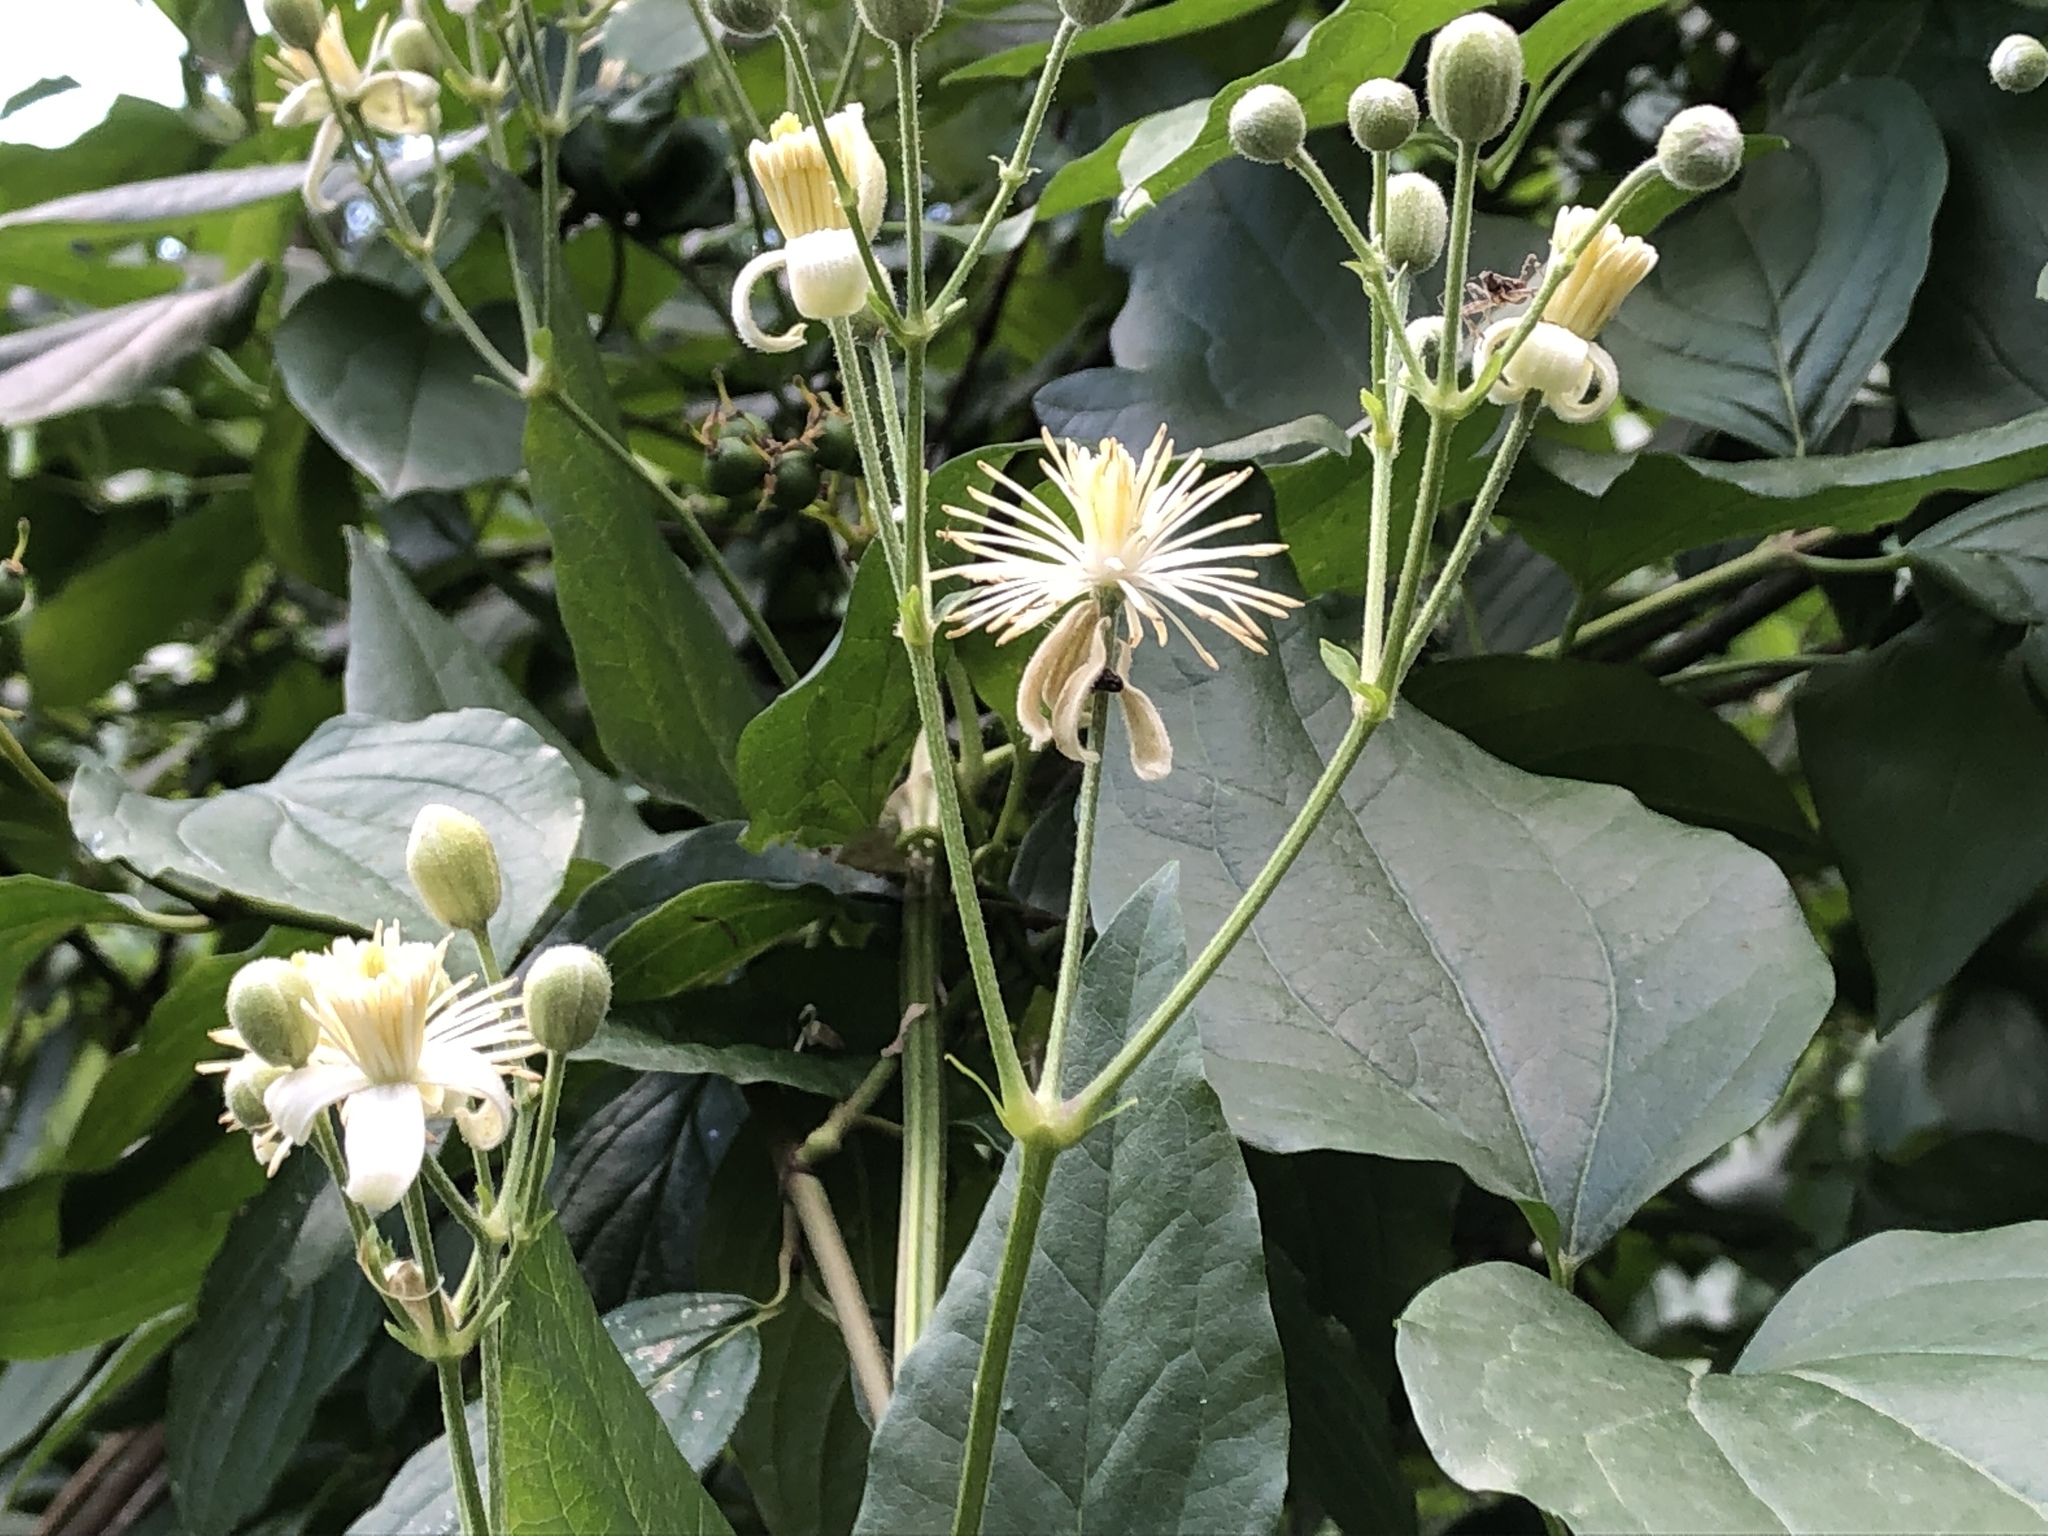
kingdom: Plantae
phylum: Tracheophyta
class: Magnoliopsida
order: Ranunculales
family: Ranunculaceae
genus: Clematis
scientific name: Clematis vitalba
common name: Evergreen clematis
